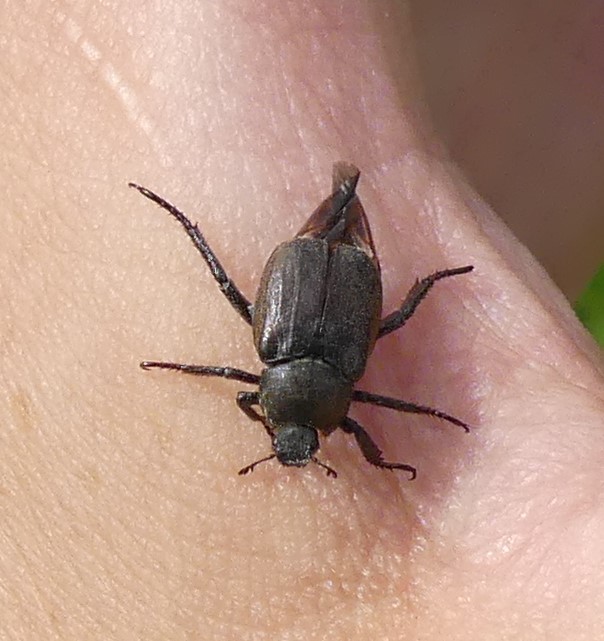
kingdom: Animalia
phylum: Arthropoda
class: Insecta
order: Coleoptera
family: Scarabaeidae
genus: Hoplia
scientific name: Hoplia philanthus
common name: Welsh chafer
